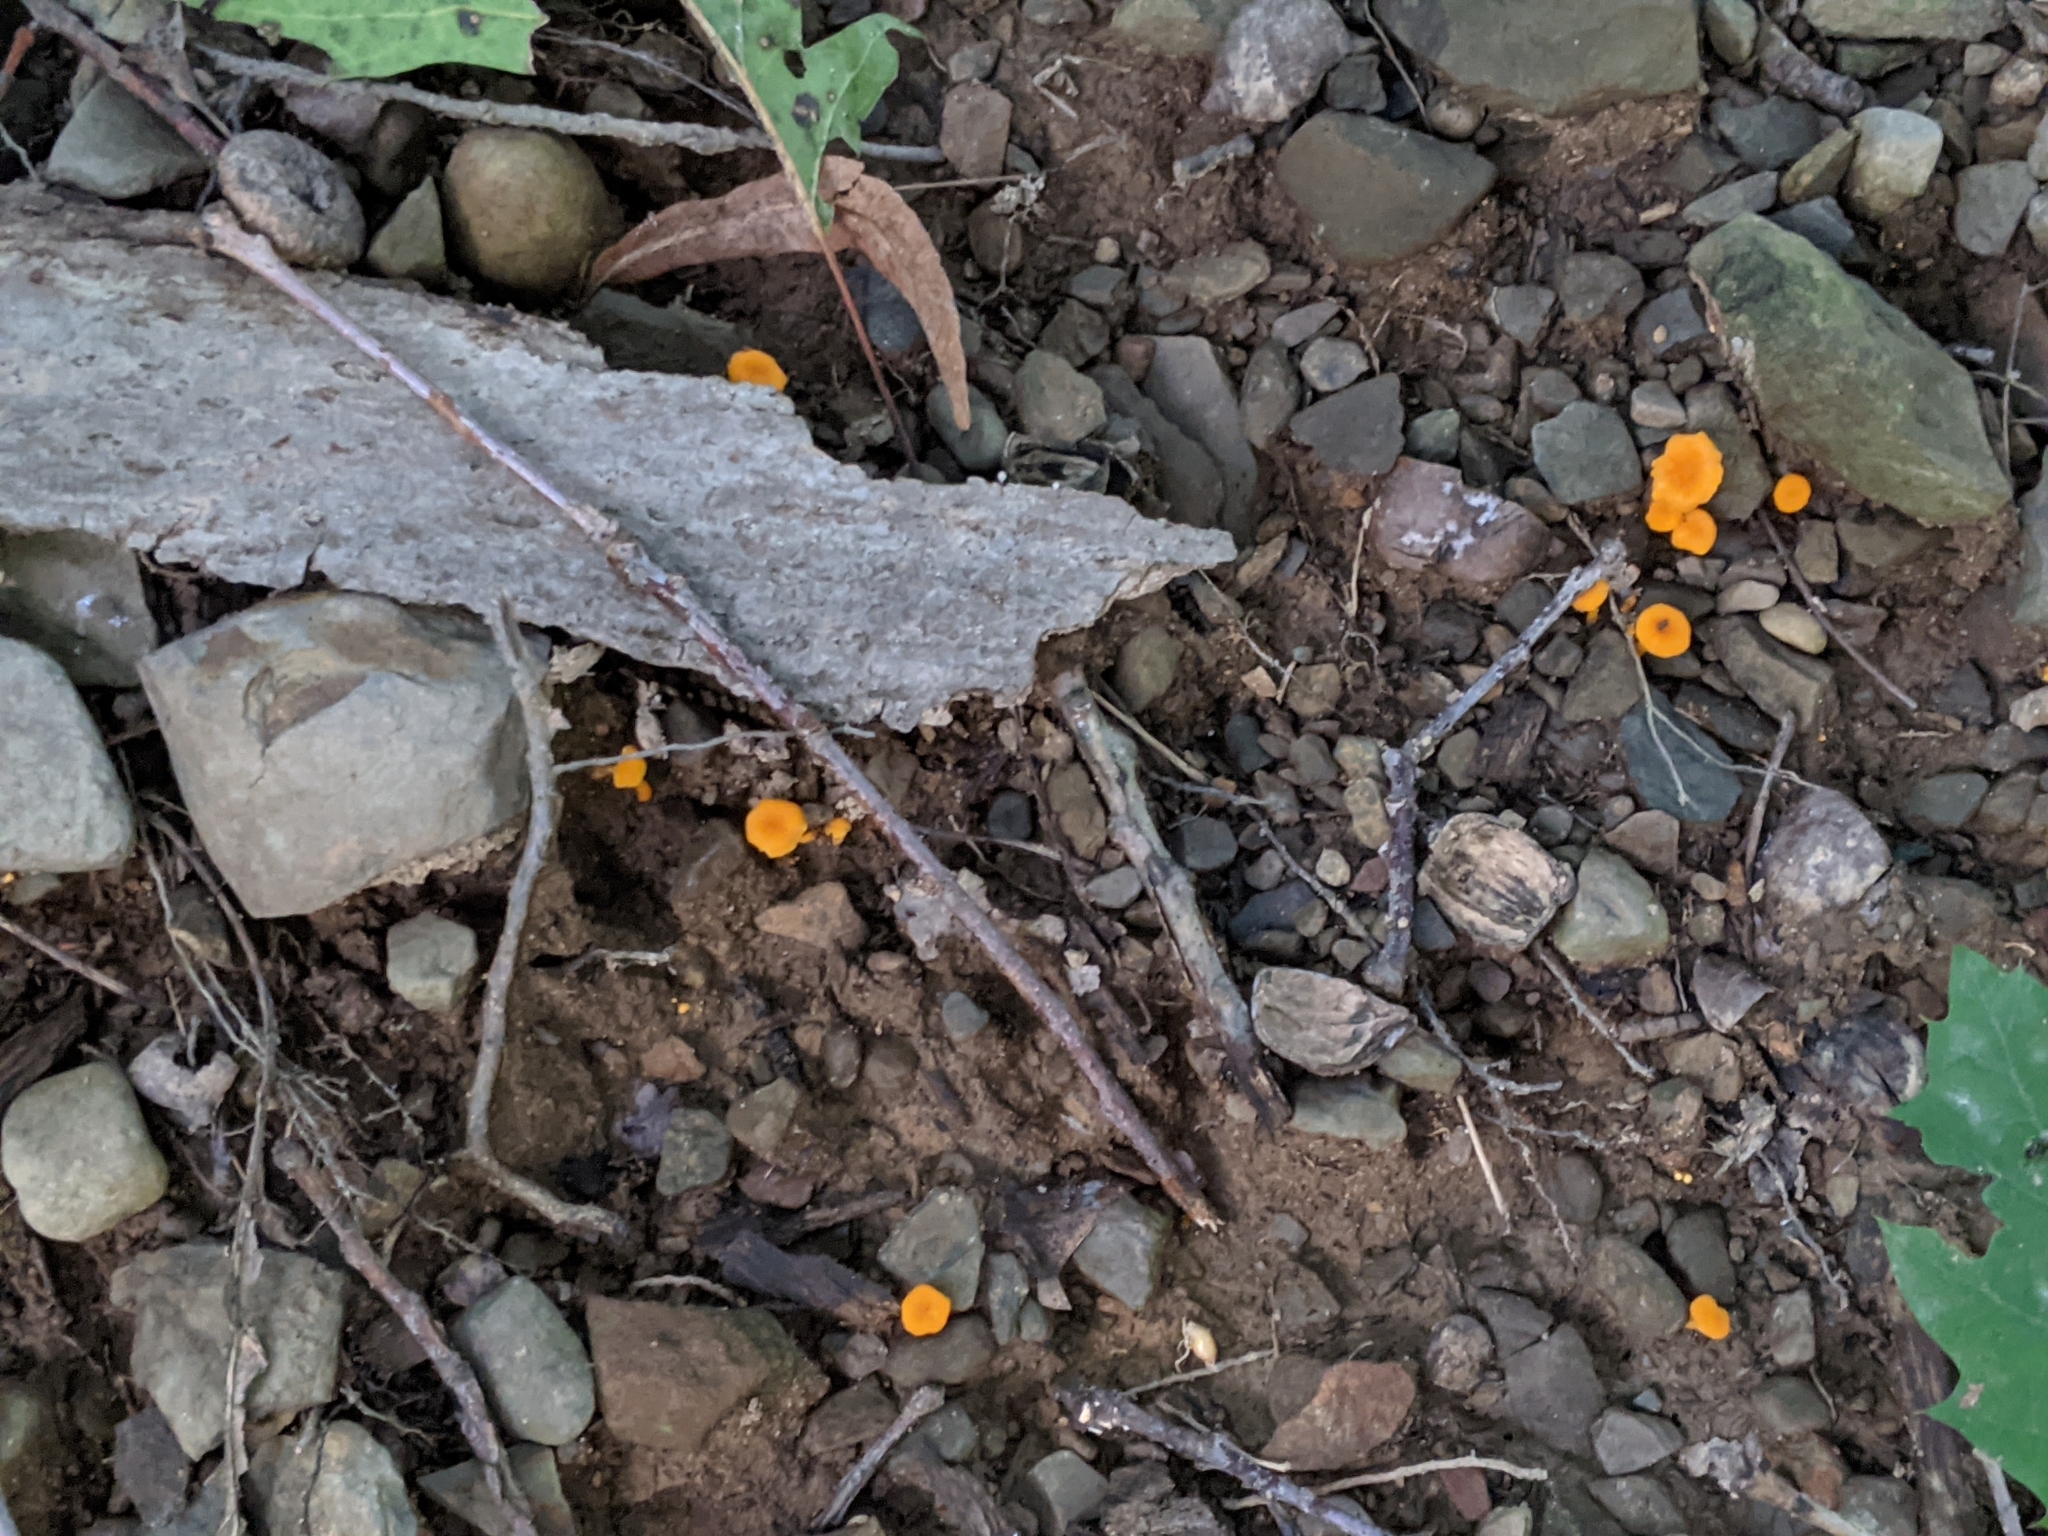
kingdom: Fungi
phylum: Basidiomycota
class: Agaricomycetes
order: Cantharellales
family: Hydnaceae
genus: Cantharellus
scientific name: Cantharellus minor
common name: Small chanterelle
